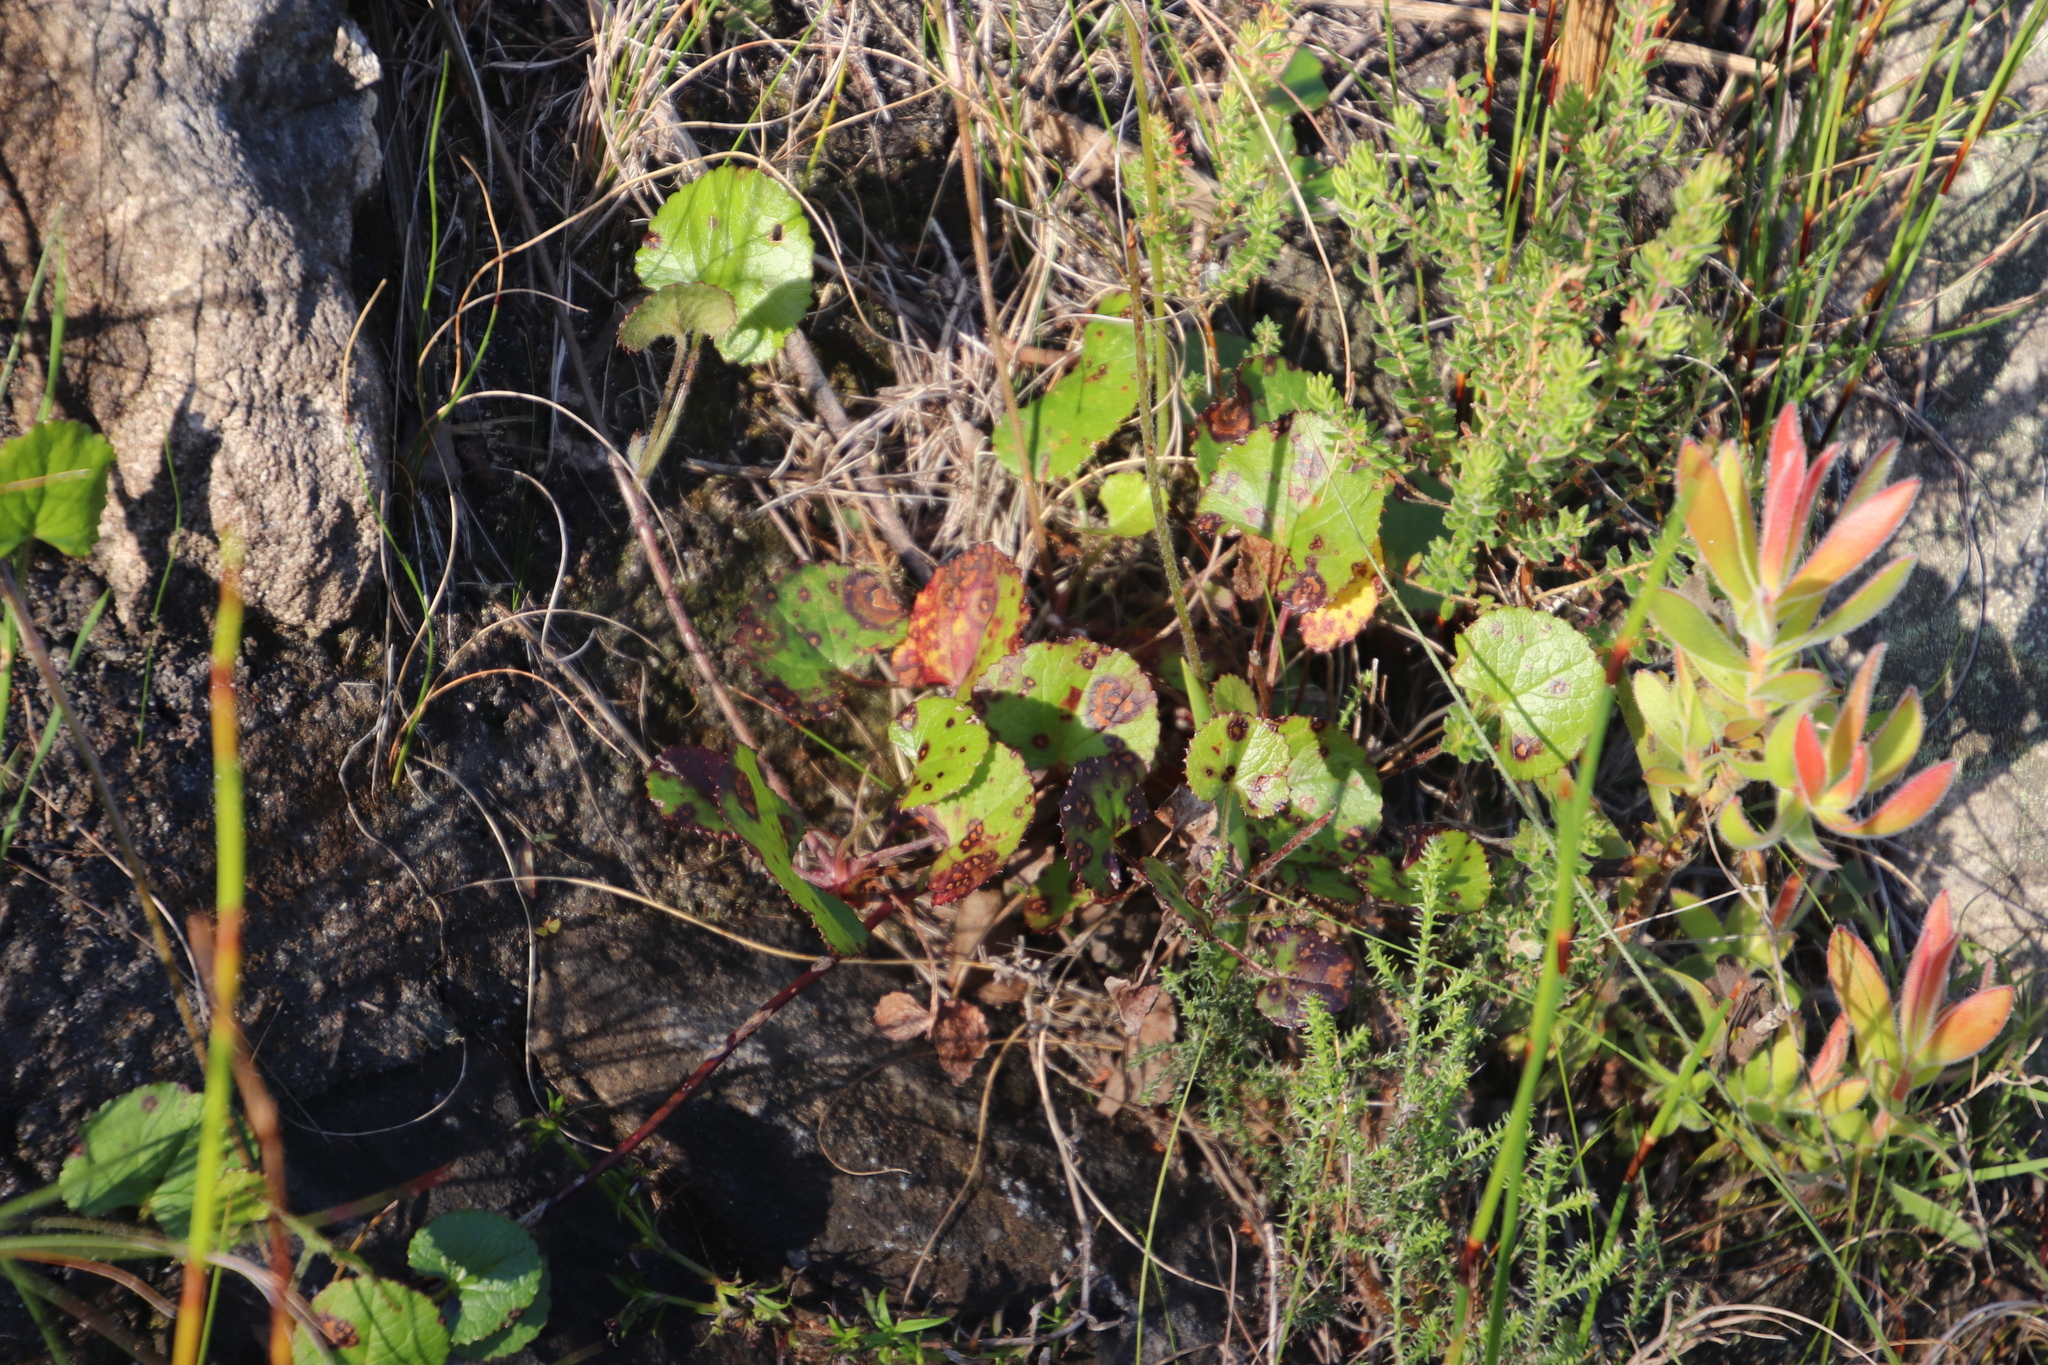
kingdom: Plantae
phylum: Tracheophyta
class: Magnoliopsida
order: Apiales
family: Apiaceae
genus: Centella
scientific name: Centella eriantha
